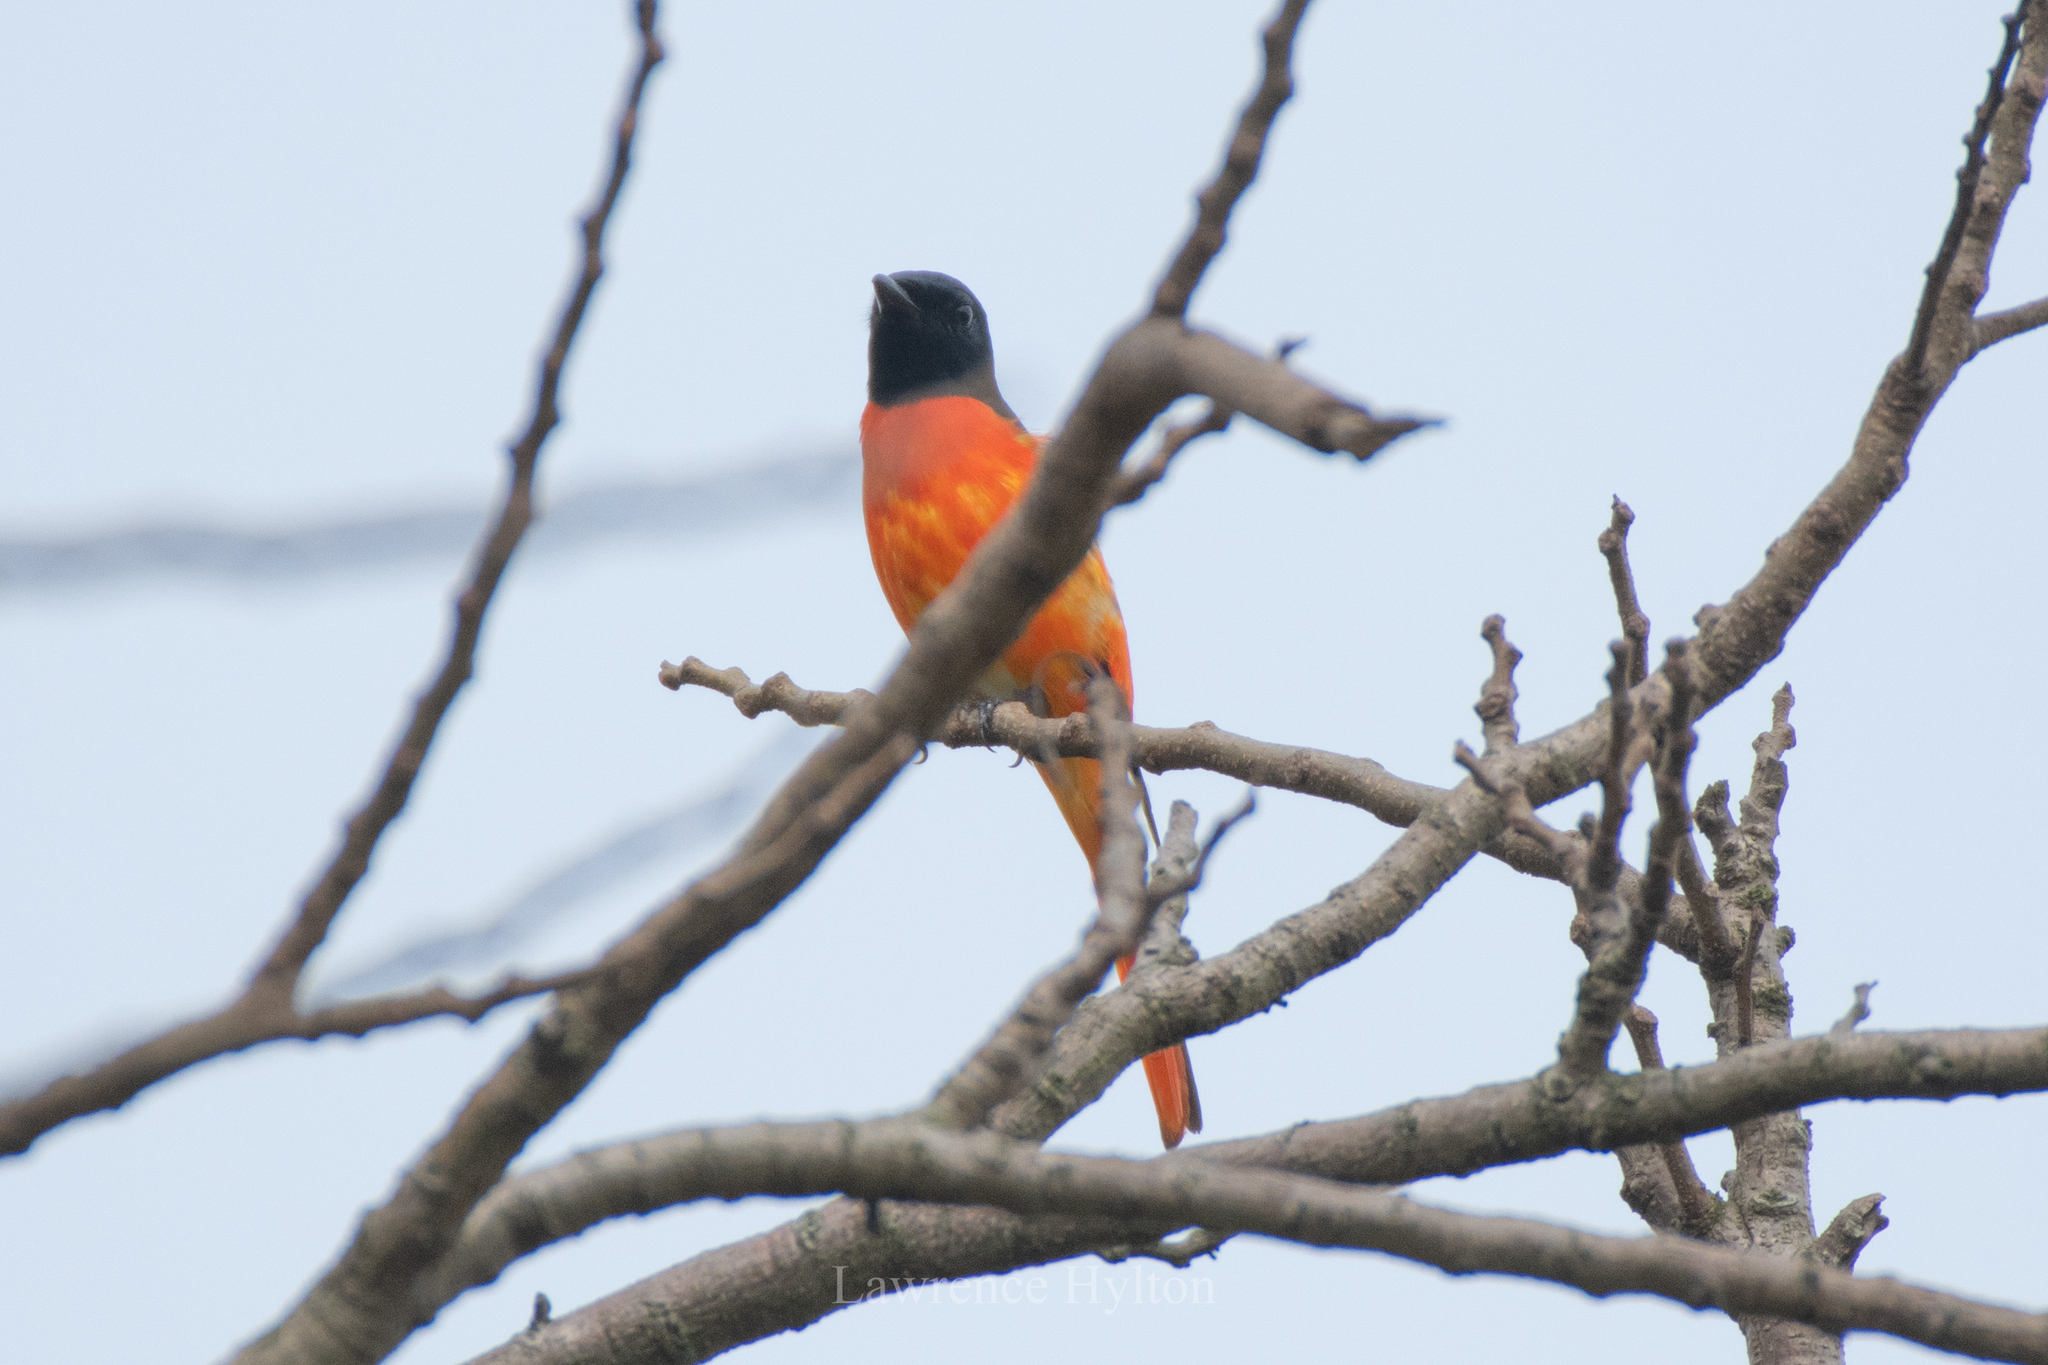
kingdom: Animalia
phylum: Chordata
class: Aves
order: Passeriformes
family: Campephagidae
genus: Pericrocotus
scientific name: Pericrocotus speciosus
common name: Scarlet minivet
